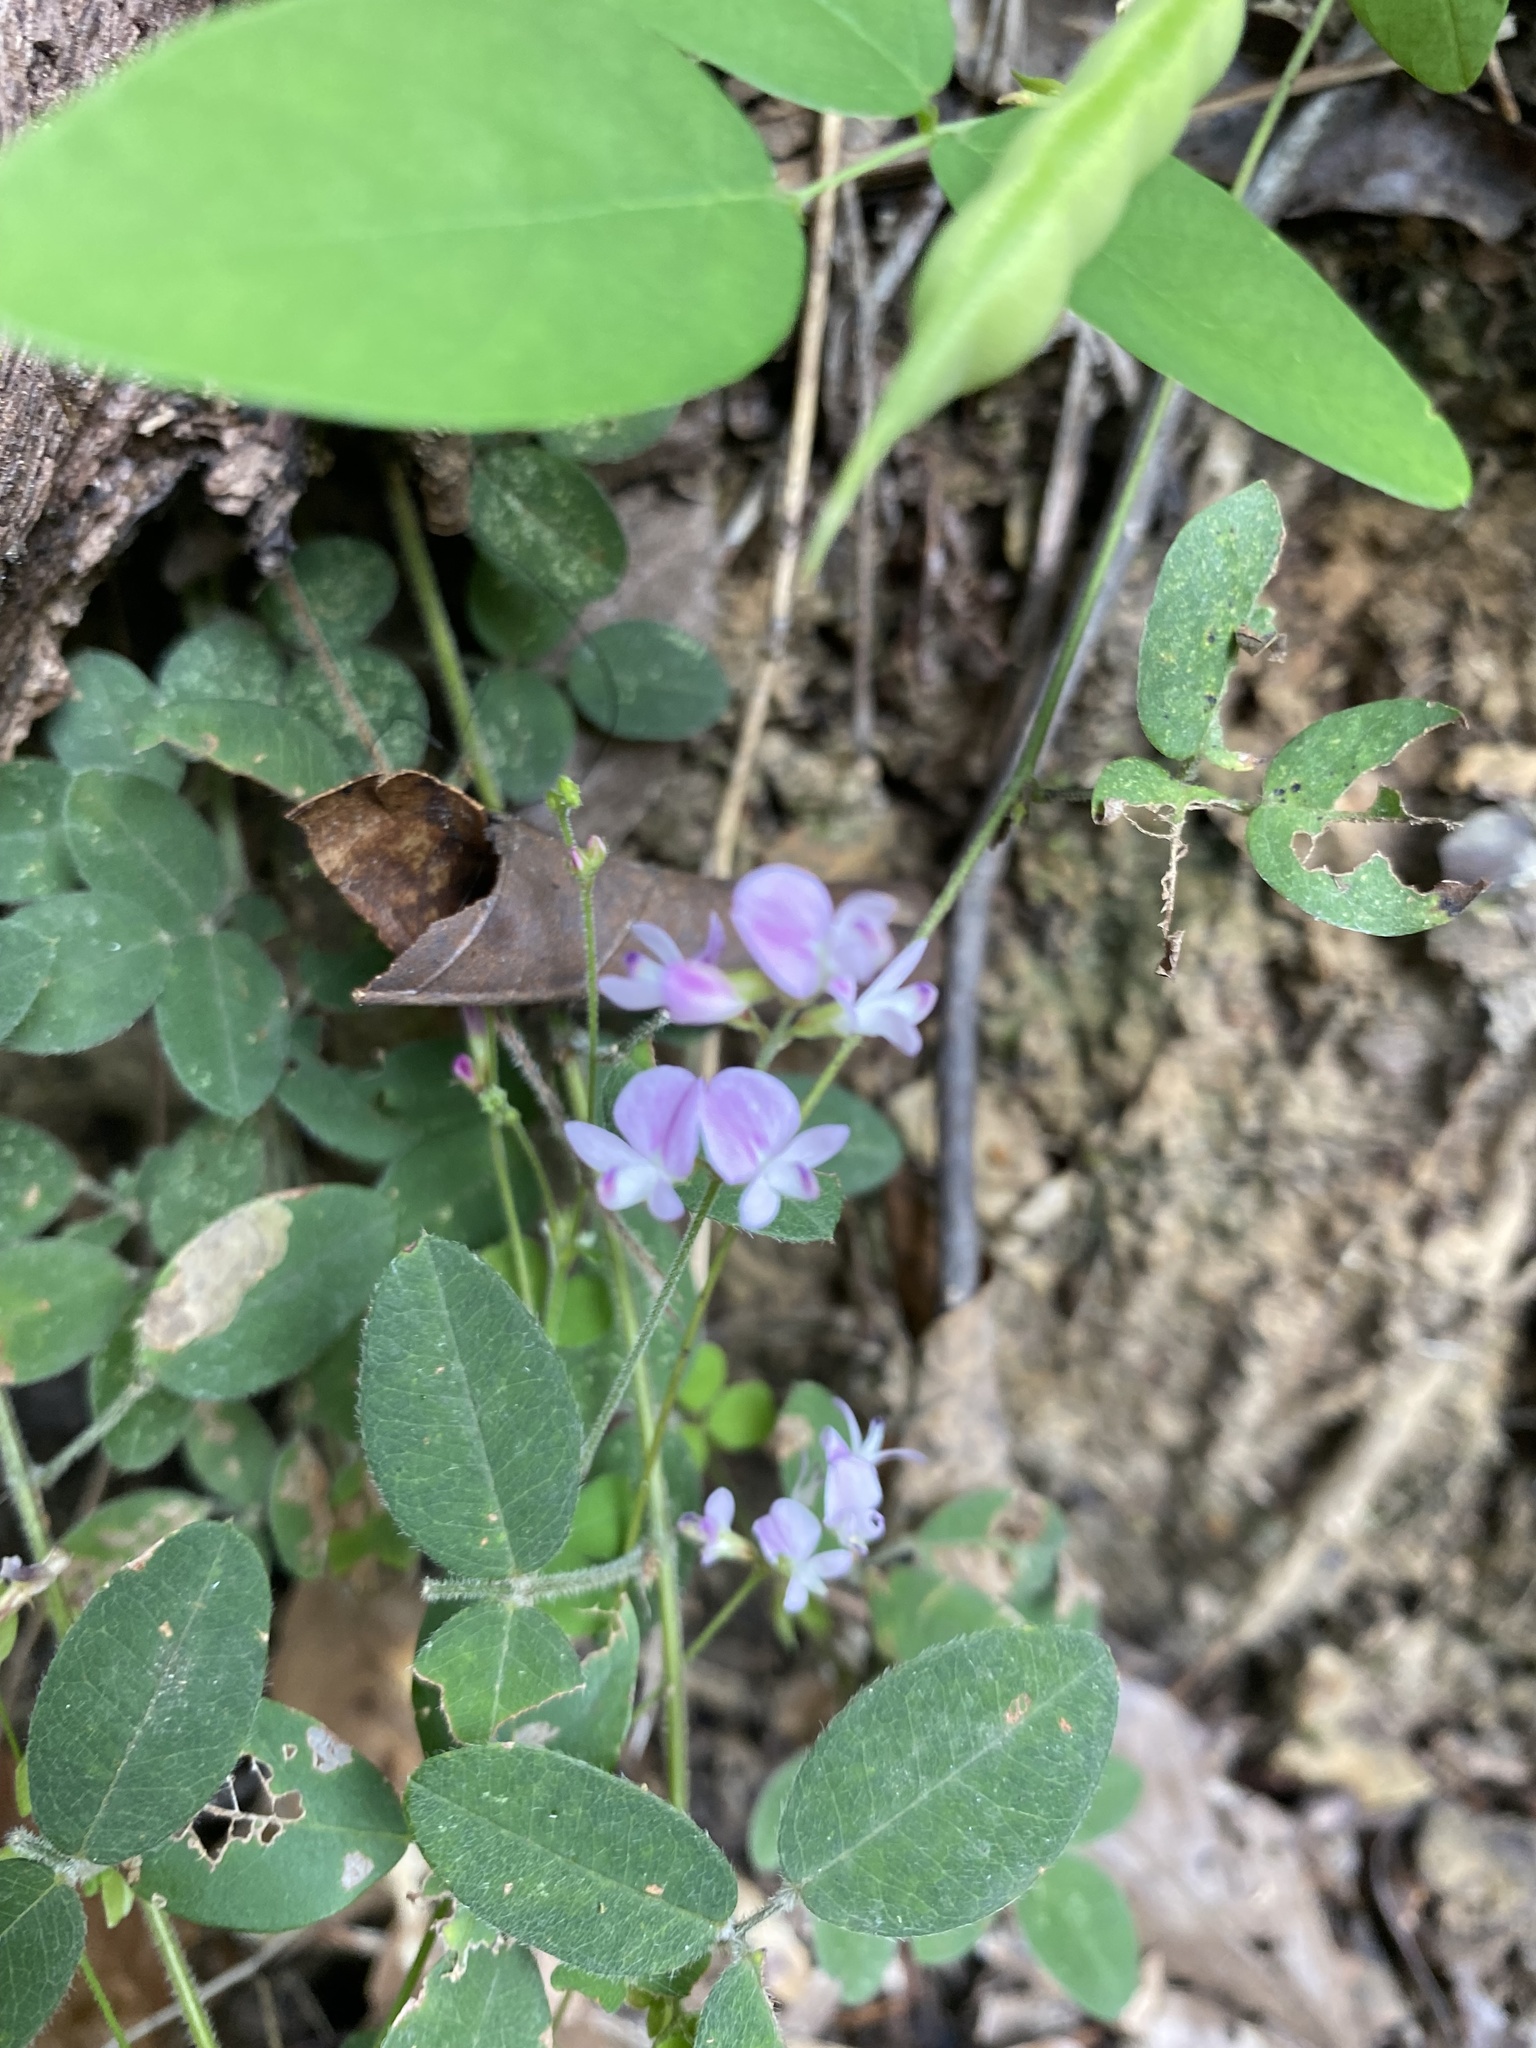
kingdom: Plantae
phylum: Tracheophyta
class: Magnoliopsida
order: Fabales
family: Fabaceae
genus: Lespedeza
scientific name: Lespedeza procumbens
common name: Downy trailing bush-clover
